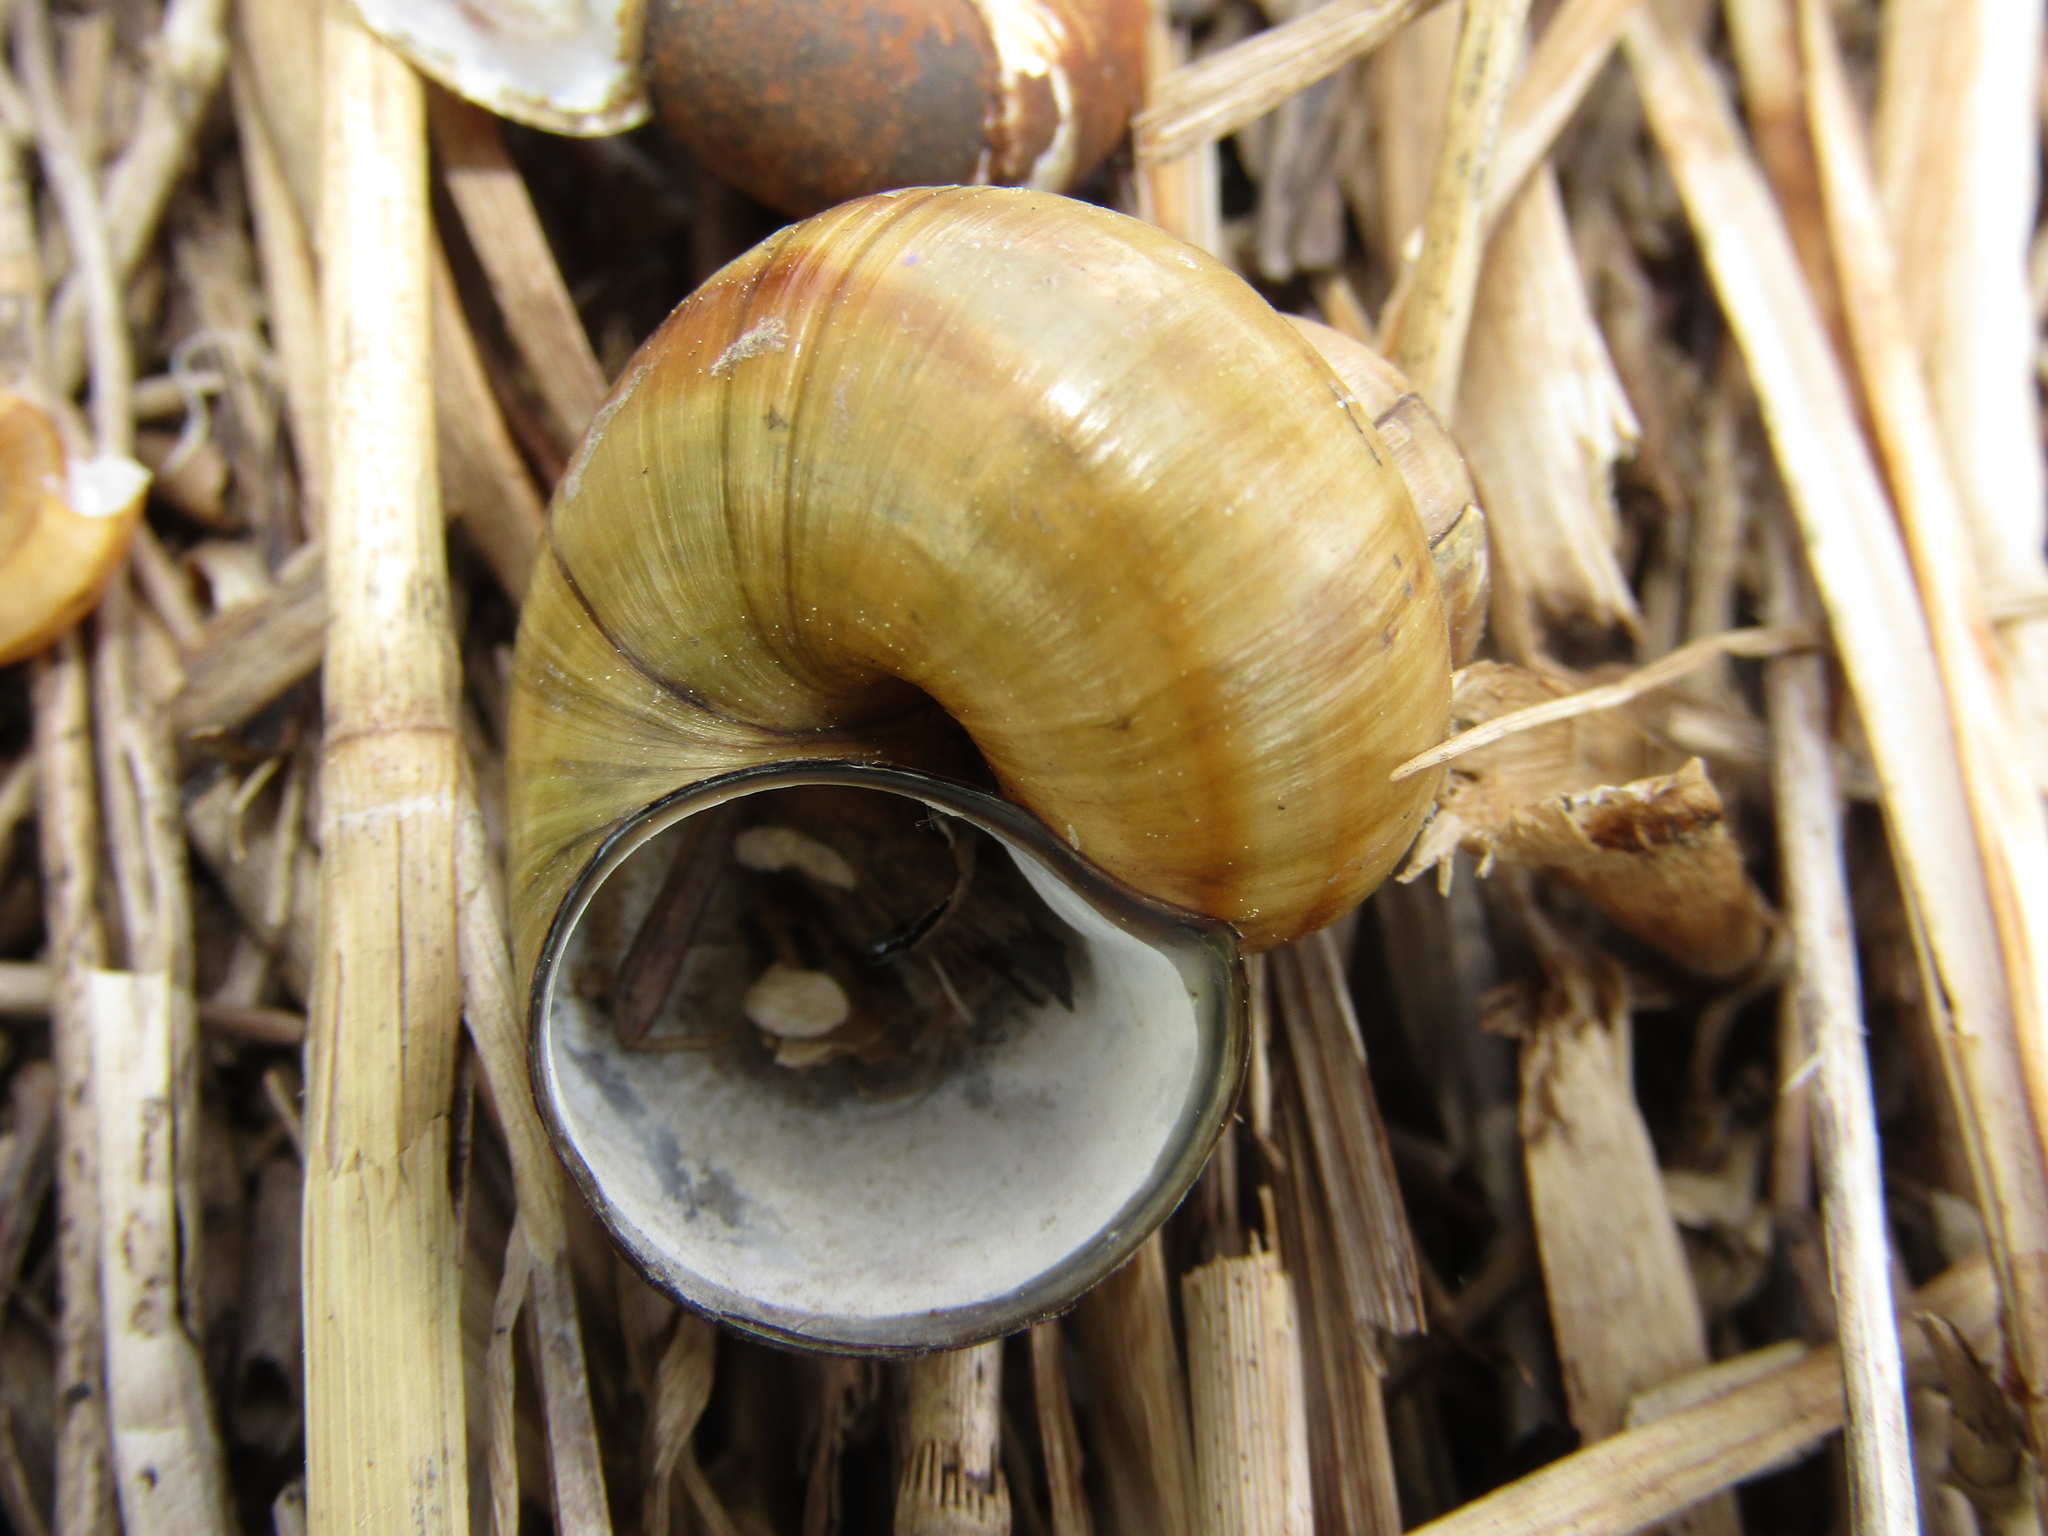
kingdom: Animalia
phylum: Mollusca
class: Gastropoda
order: Architaenioglossa
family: Viviparidae
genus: Viviparus
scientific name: Viviparus contectus
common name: Lister's river snail
